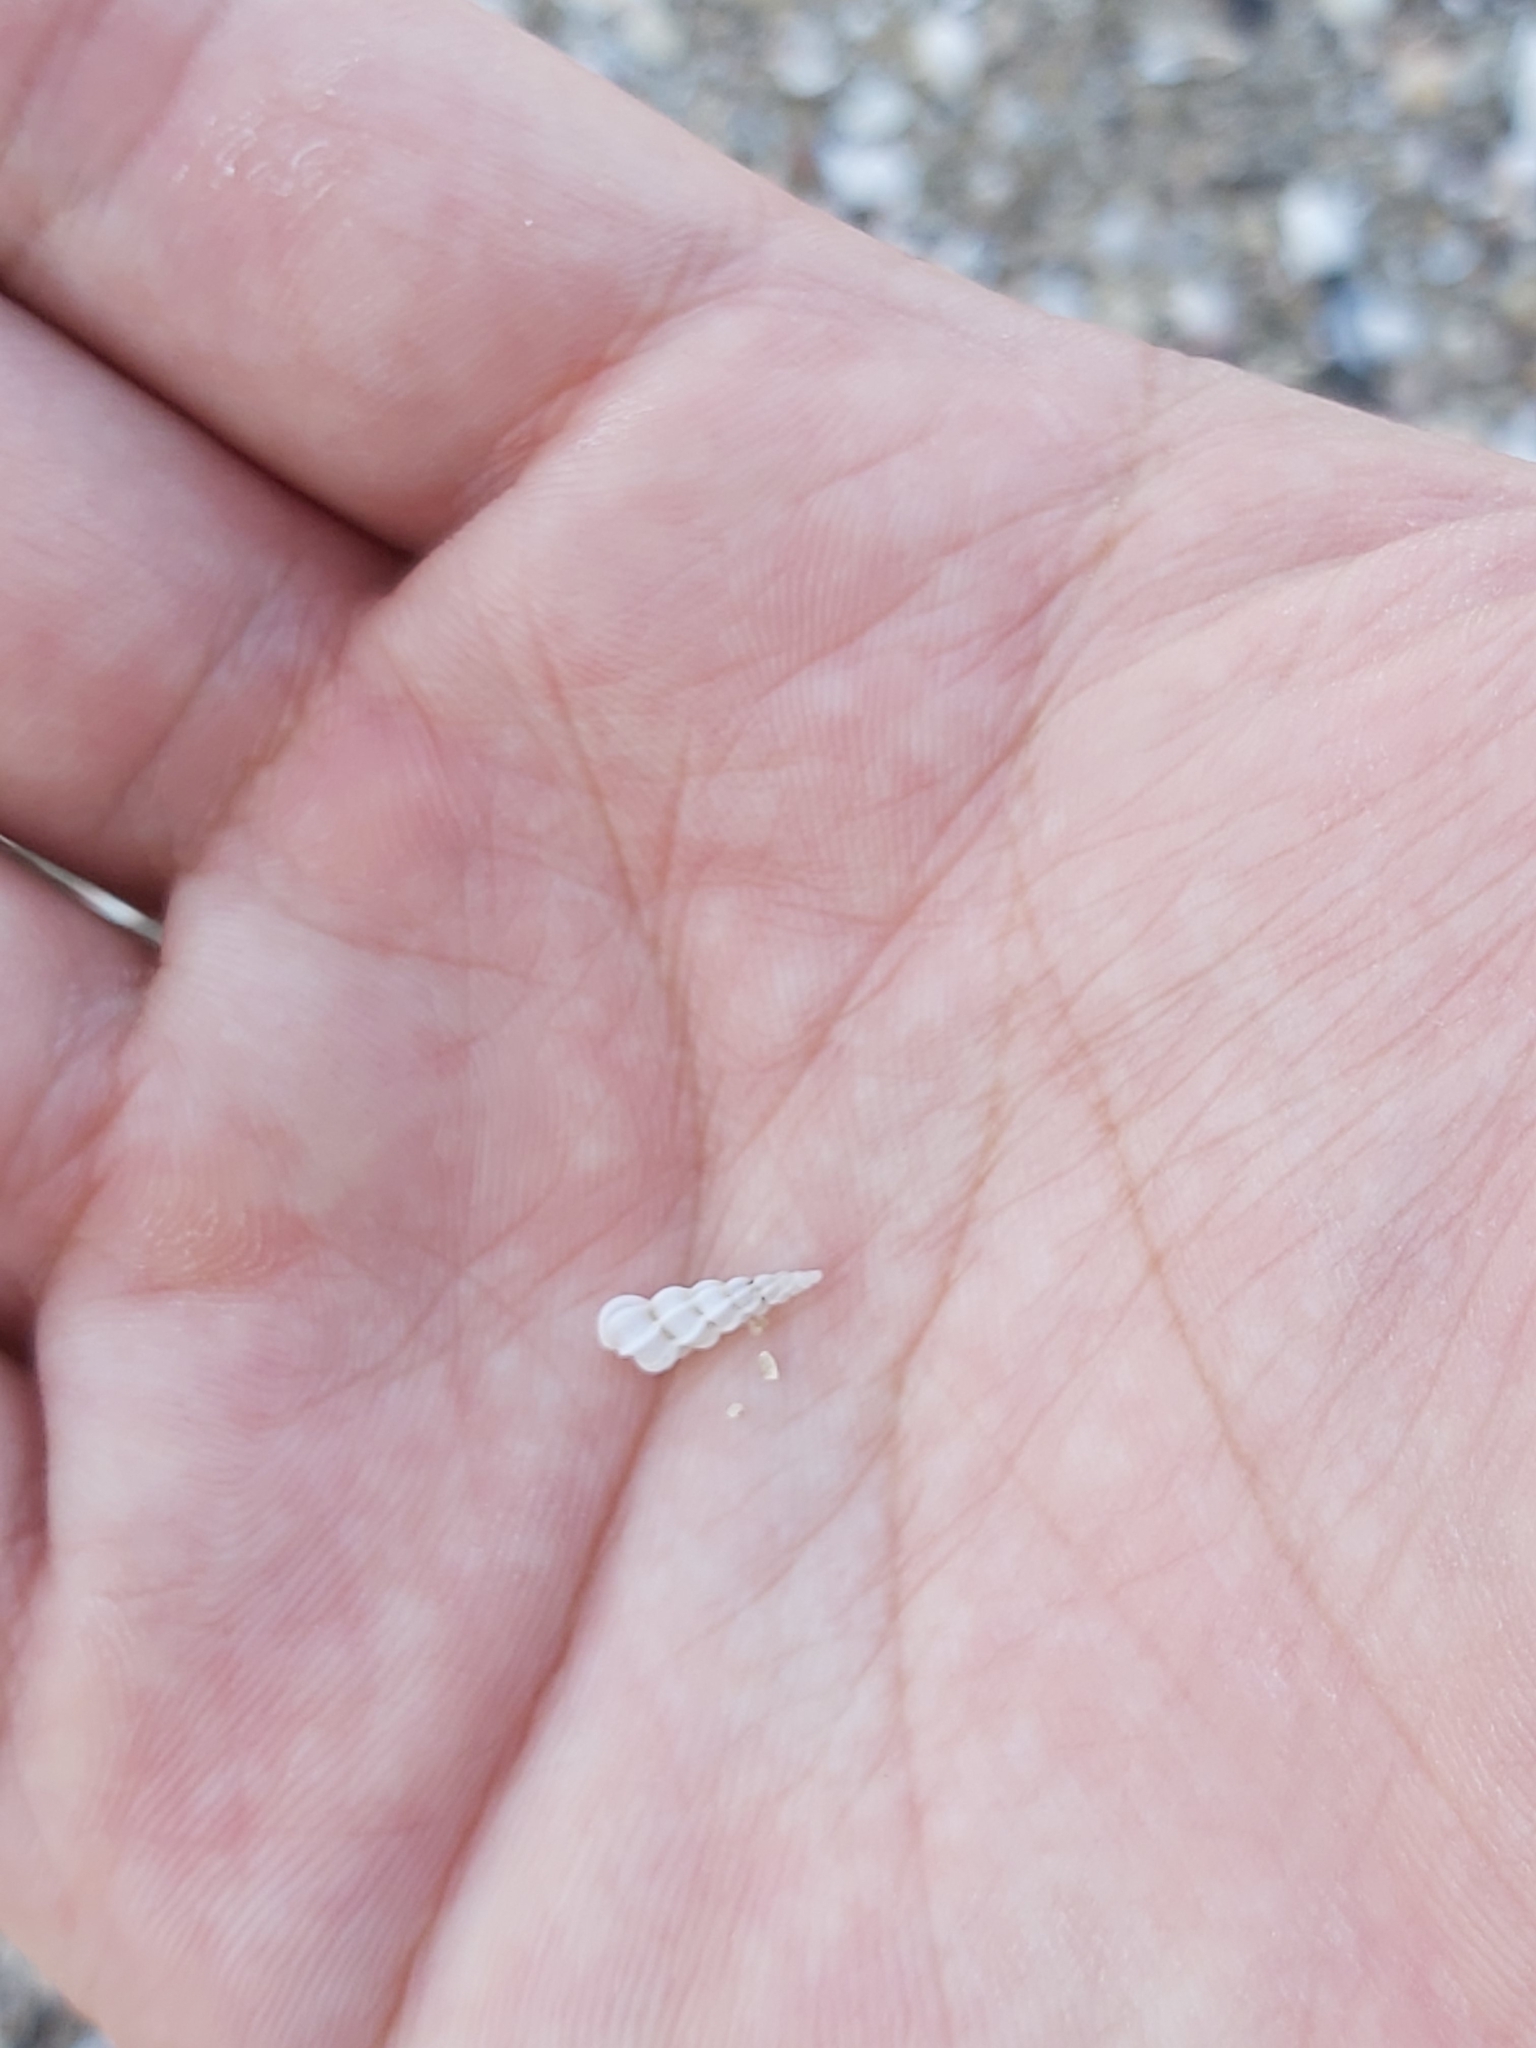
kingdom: Animalia
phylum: Mollusca
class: Gastropoda
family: Epitoniidae
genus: Epitonium
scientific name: Epitonium sandwichense
